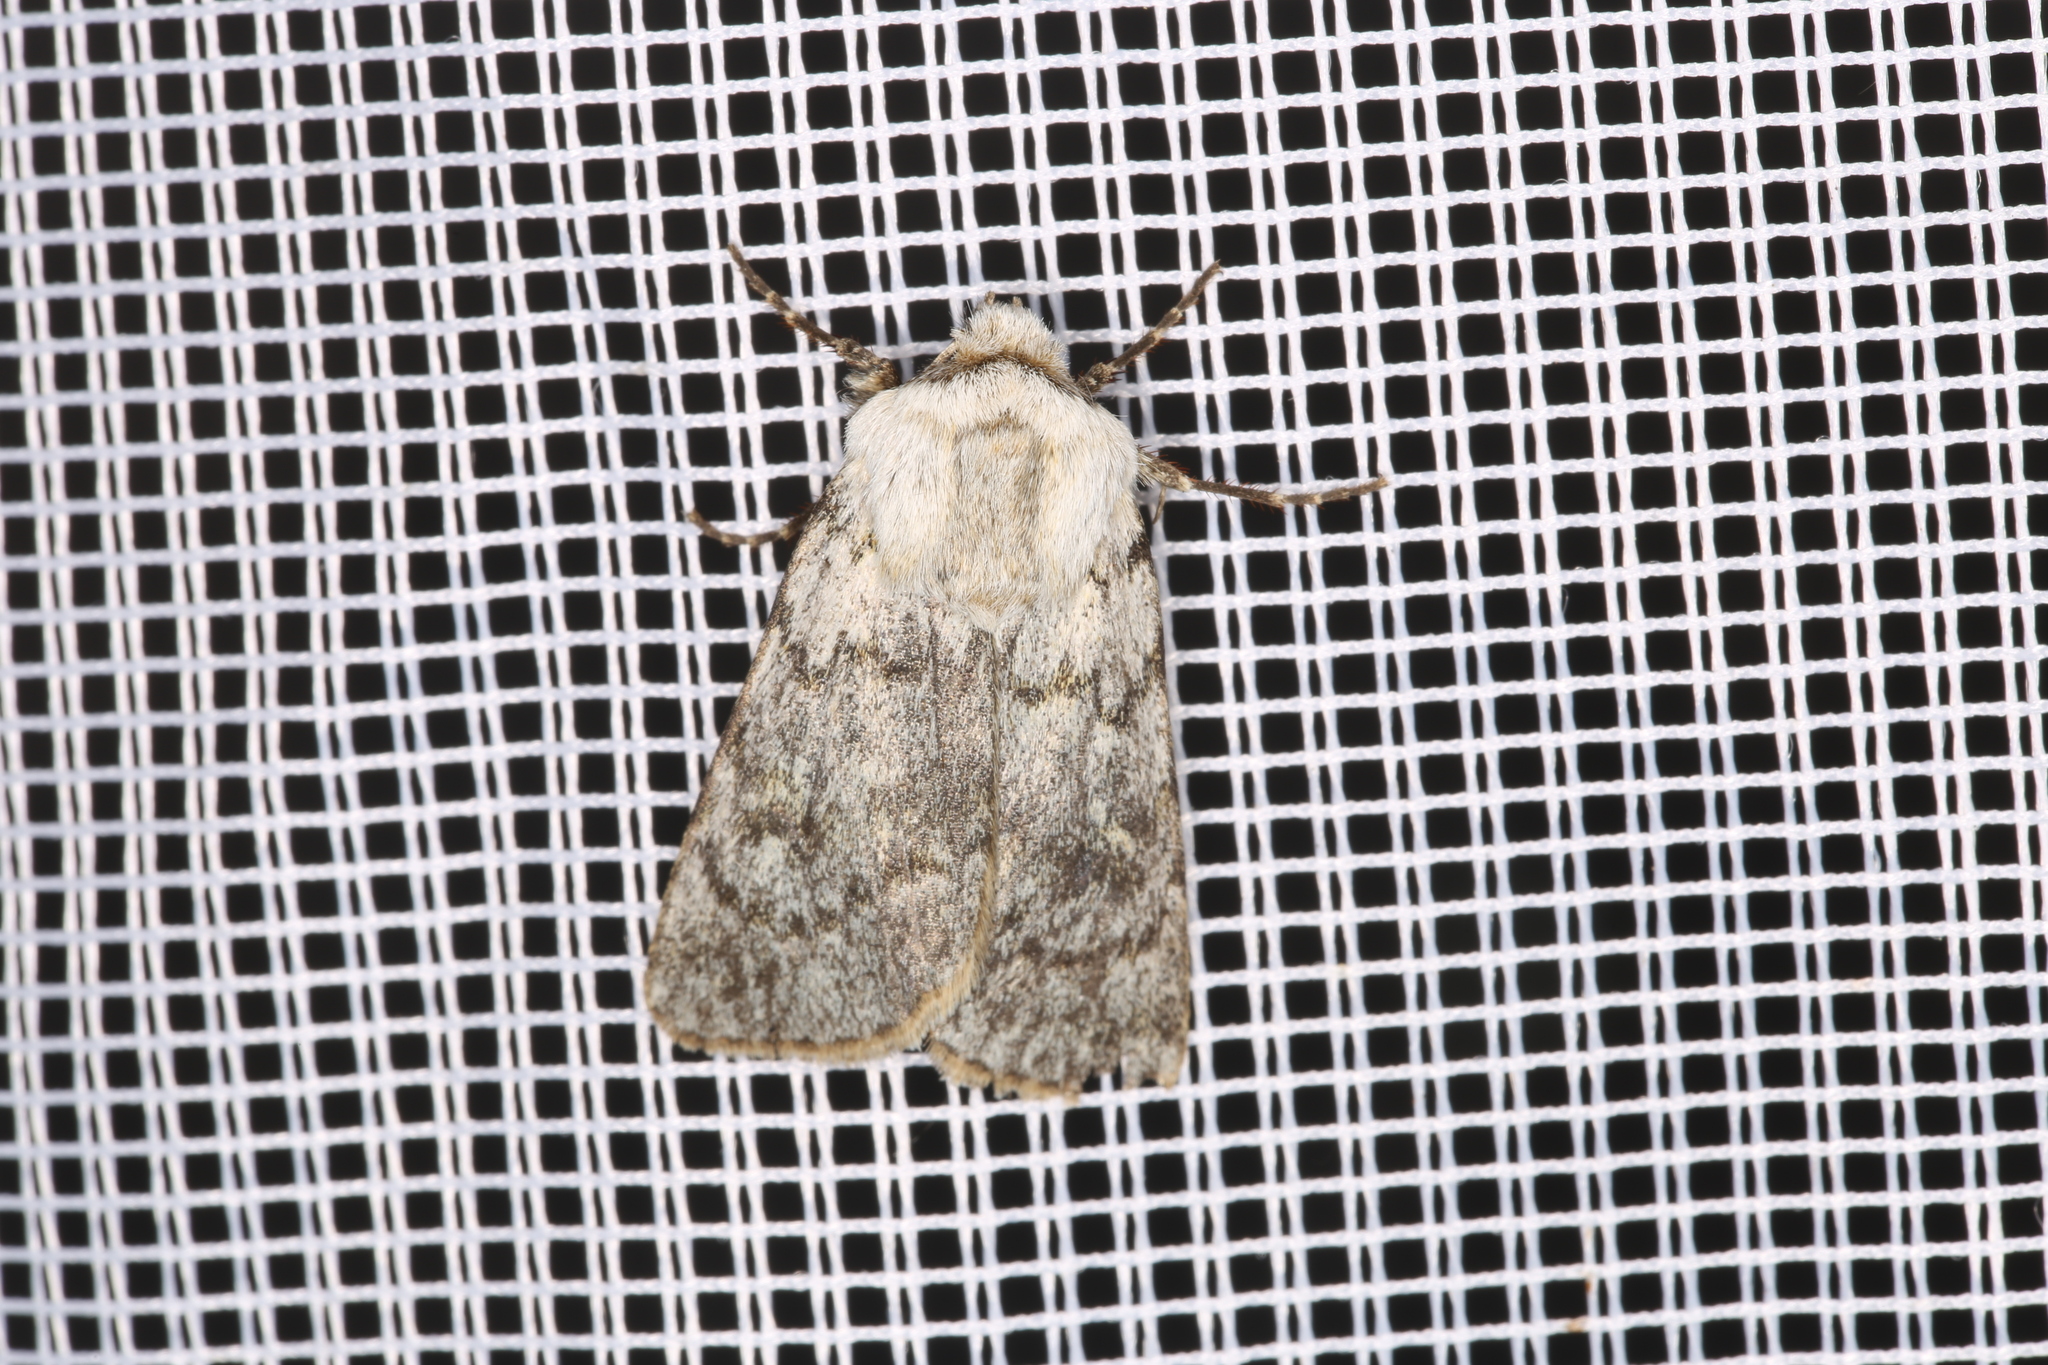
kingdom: Animalia
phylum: Arthropoda
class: Insecta
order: Lepidoptera
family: Noctuidae
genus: Agrotis
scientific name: Agrotis simplonia
